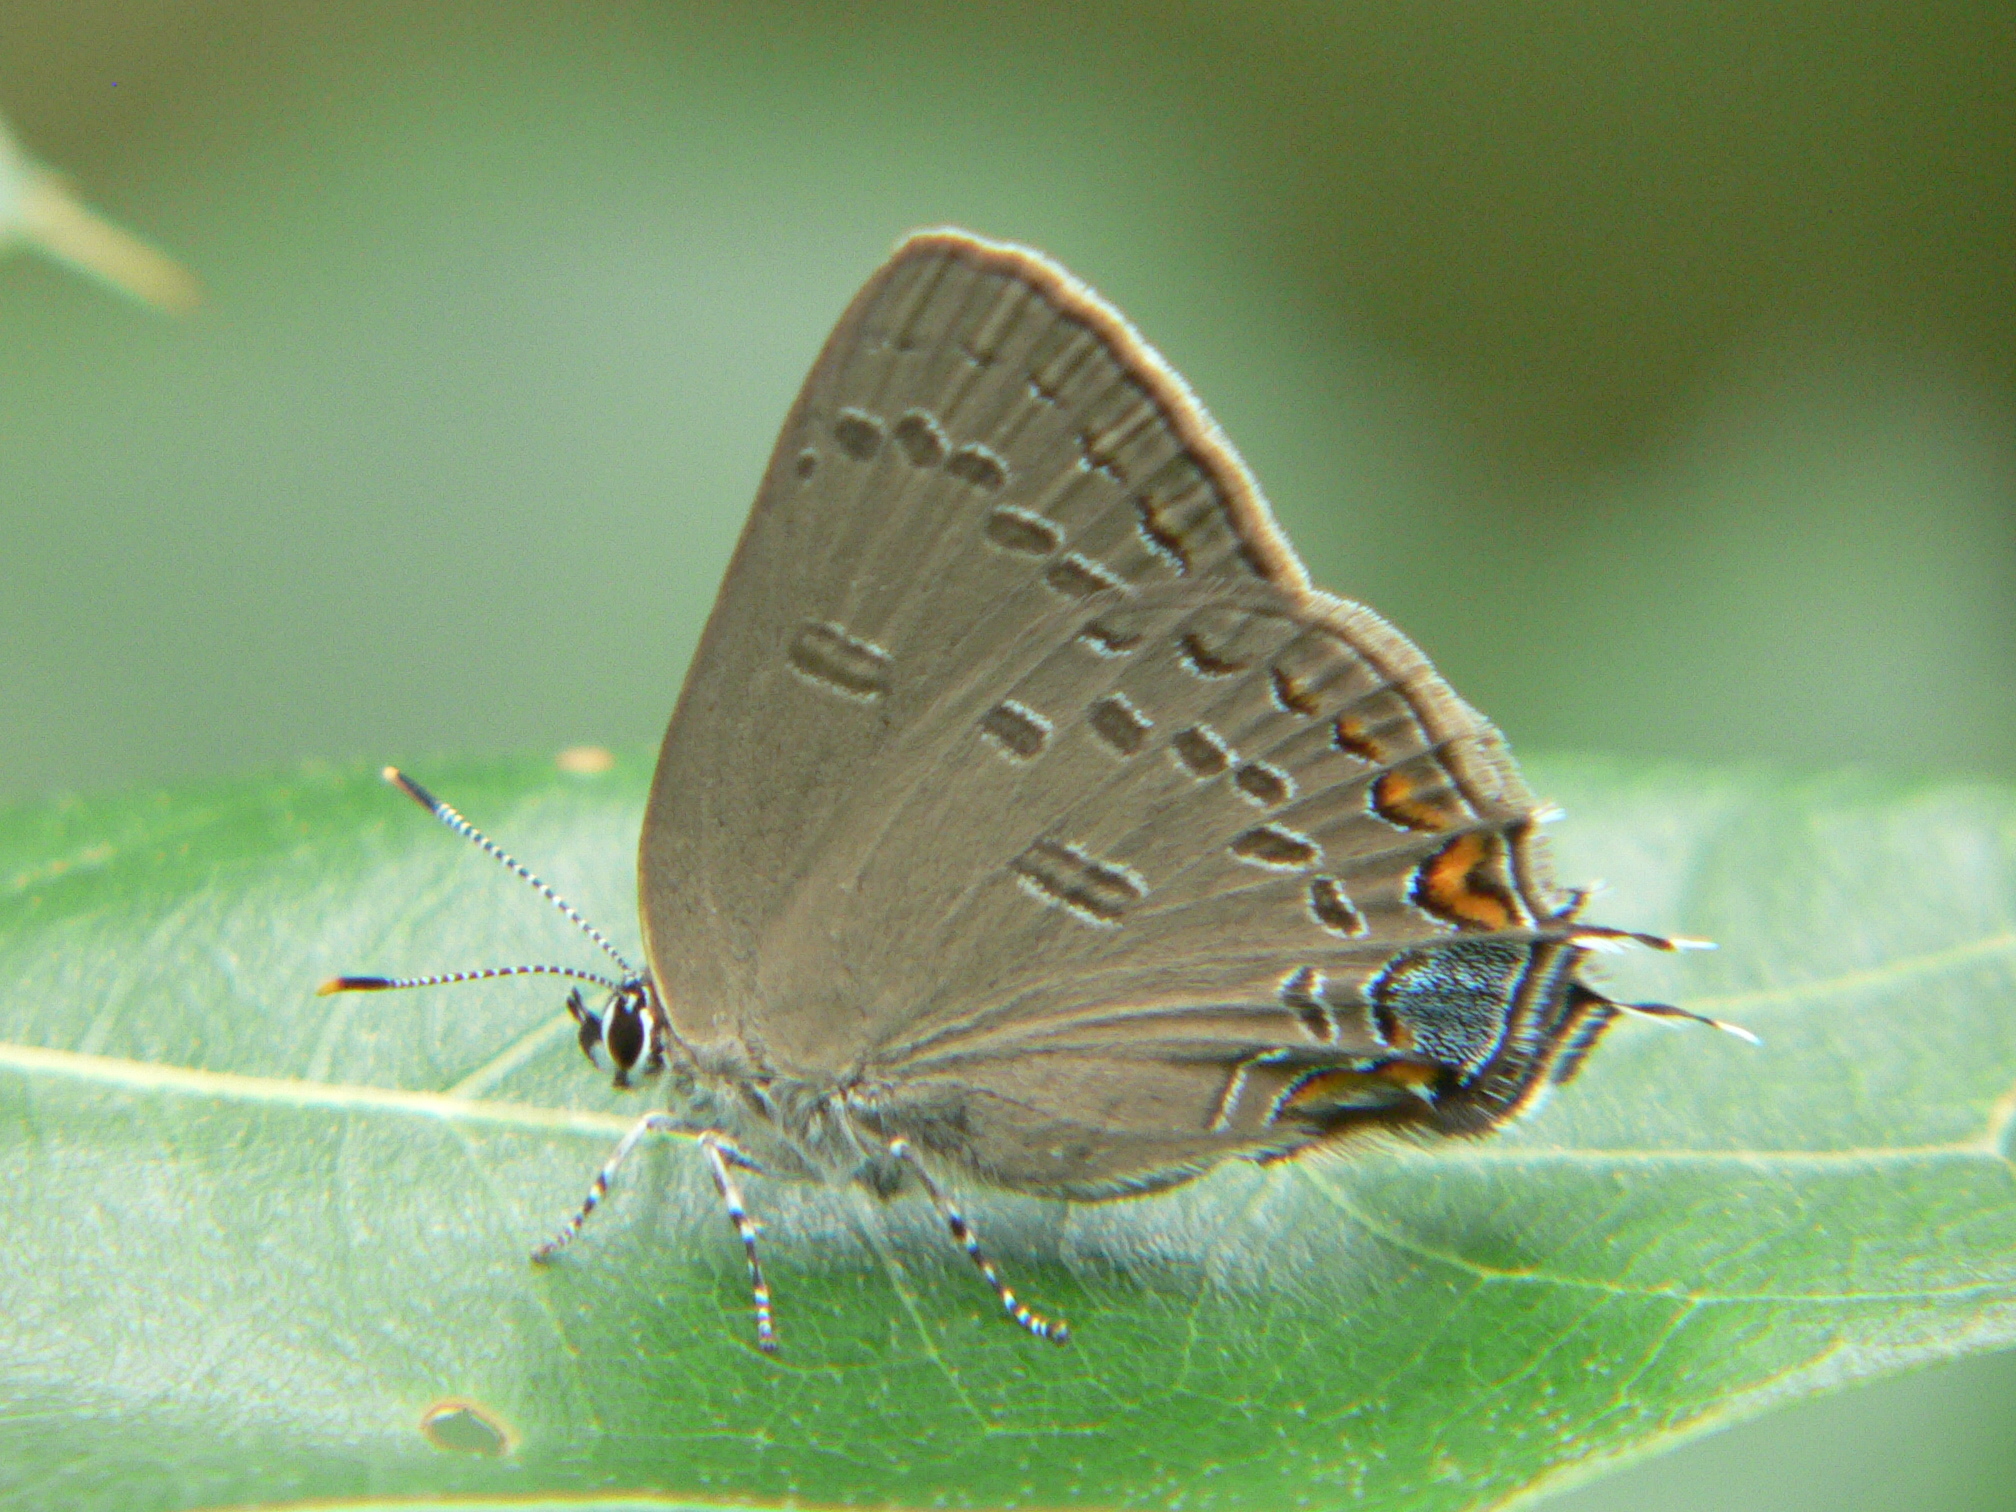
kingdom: Animalia
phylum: Arthropoda
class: Insecta
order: Lepidoptera
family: Lycaenidae
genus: Satyrium
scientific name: Satyrium edwardsii
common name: Edwards' hairstreak
